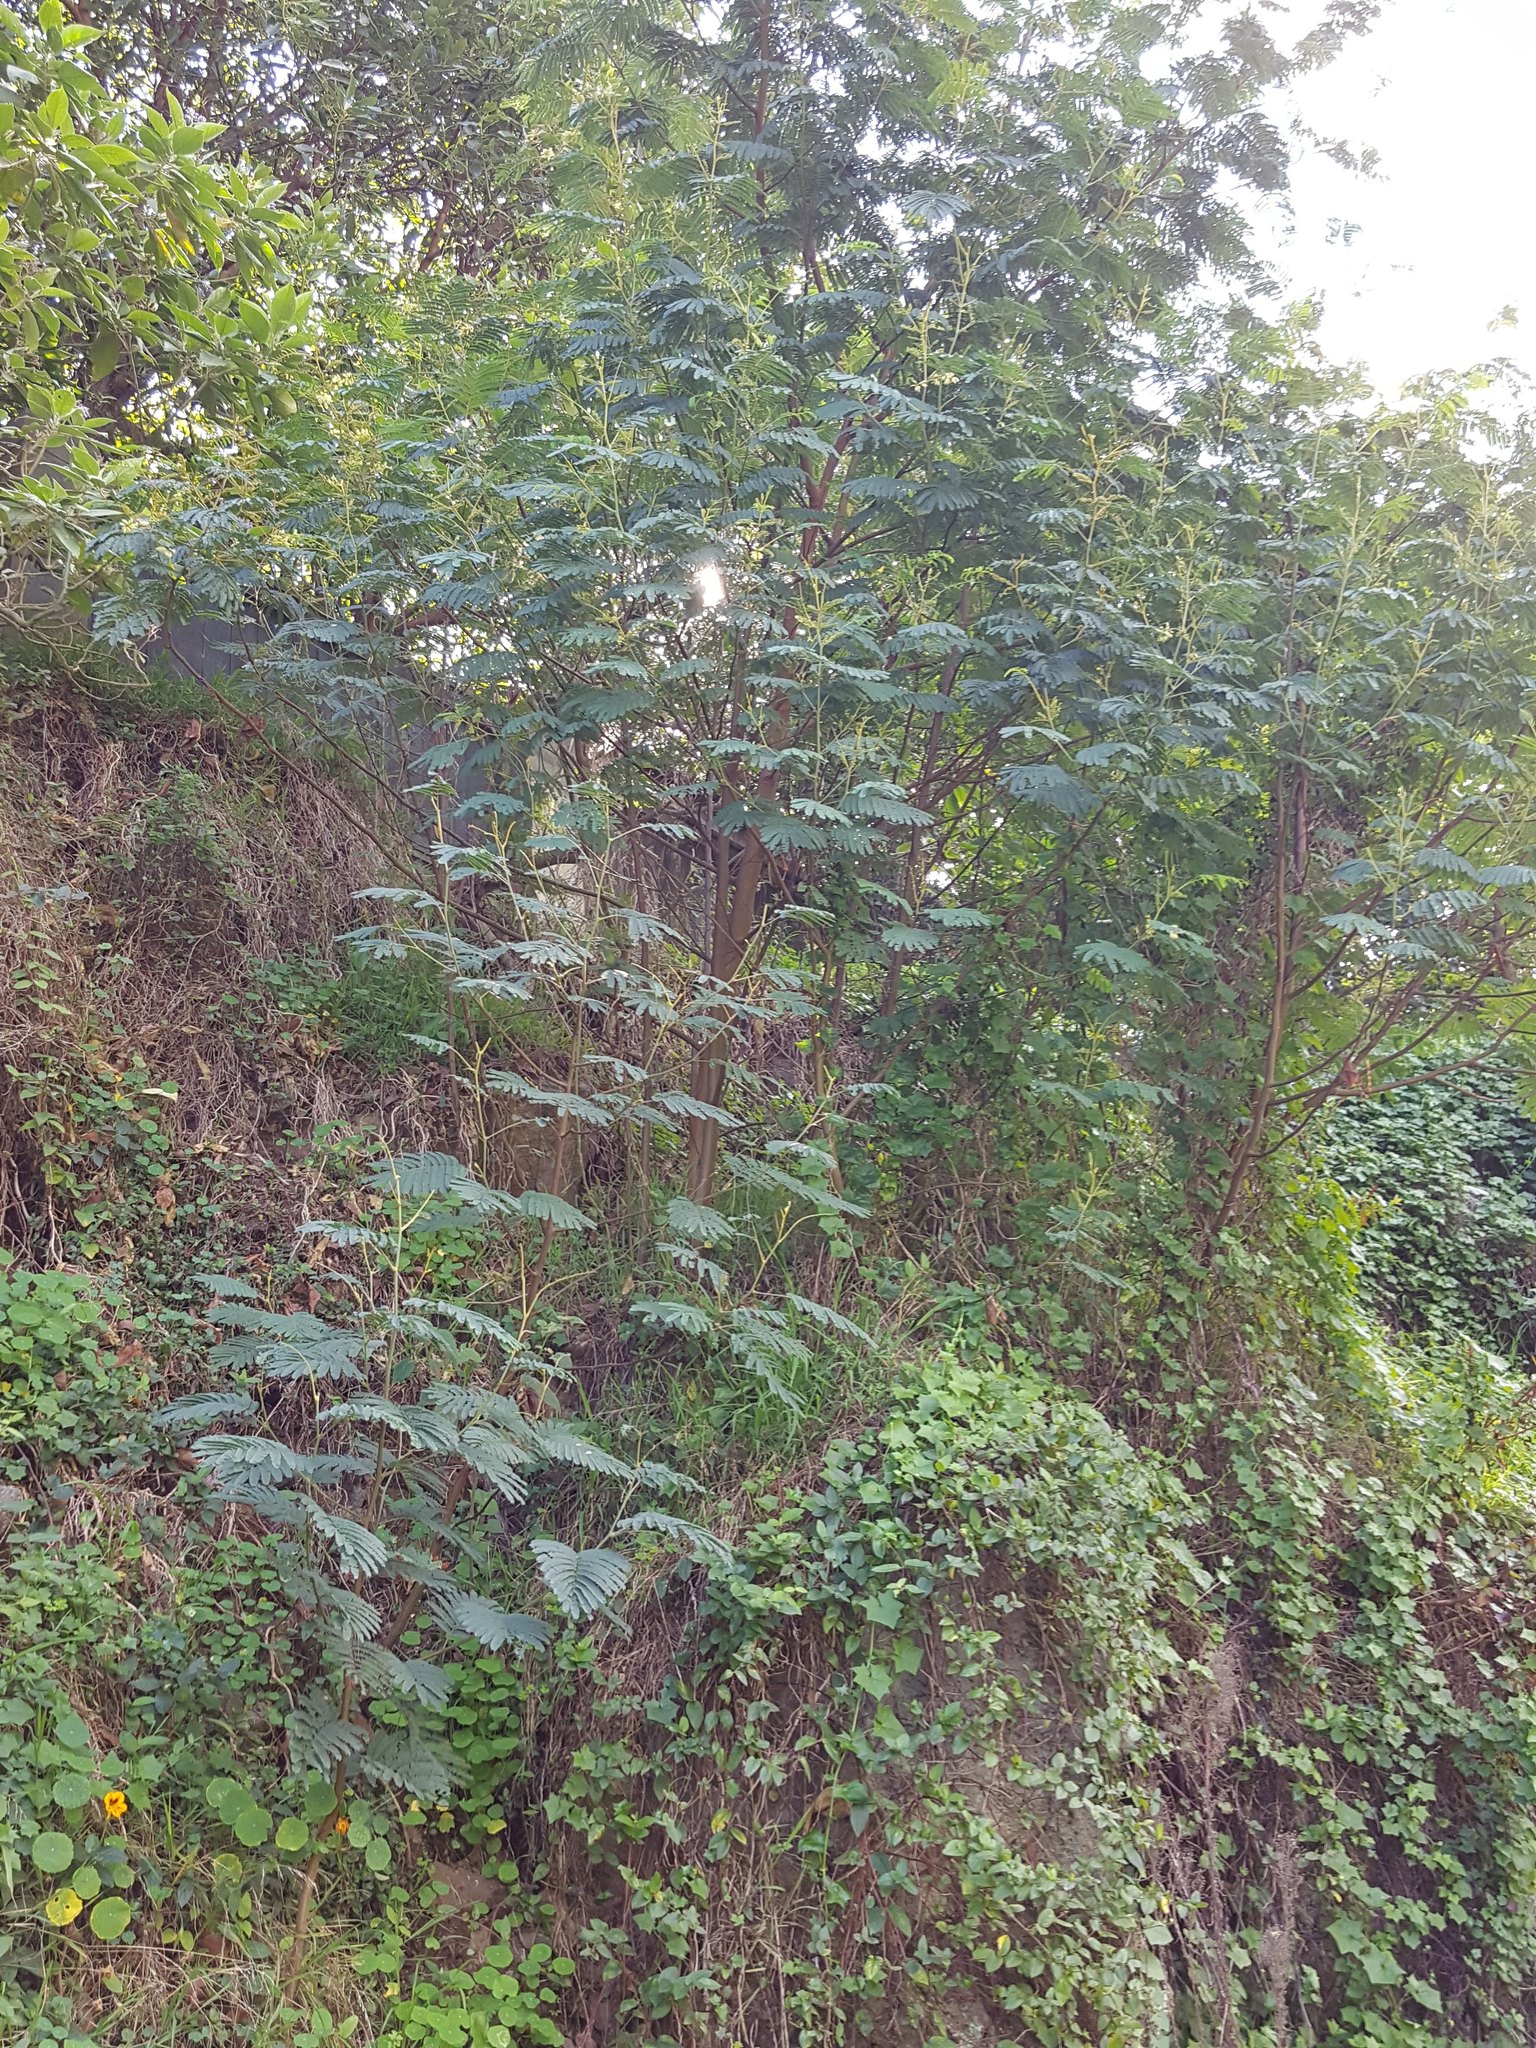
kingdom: Plantae
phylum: Tracheophyta
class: Magnoliopsida
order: Fabales
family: Fabaceae
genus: Paraserianthes
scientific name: Paraserianthes lophantha
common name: Plume albizia
